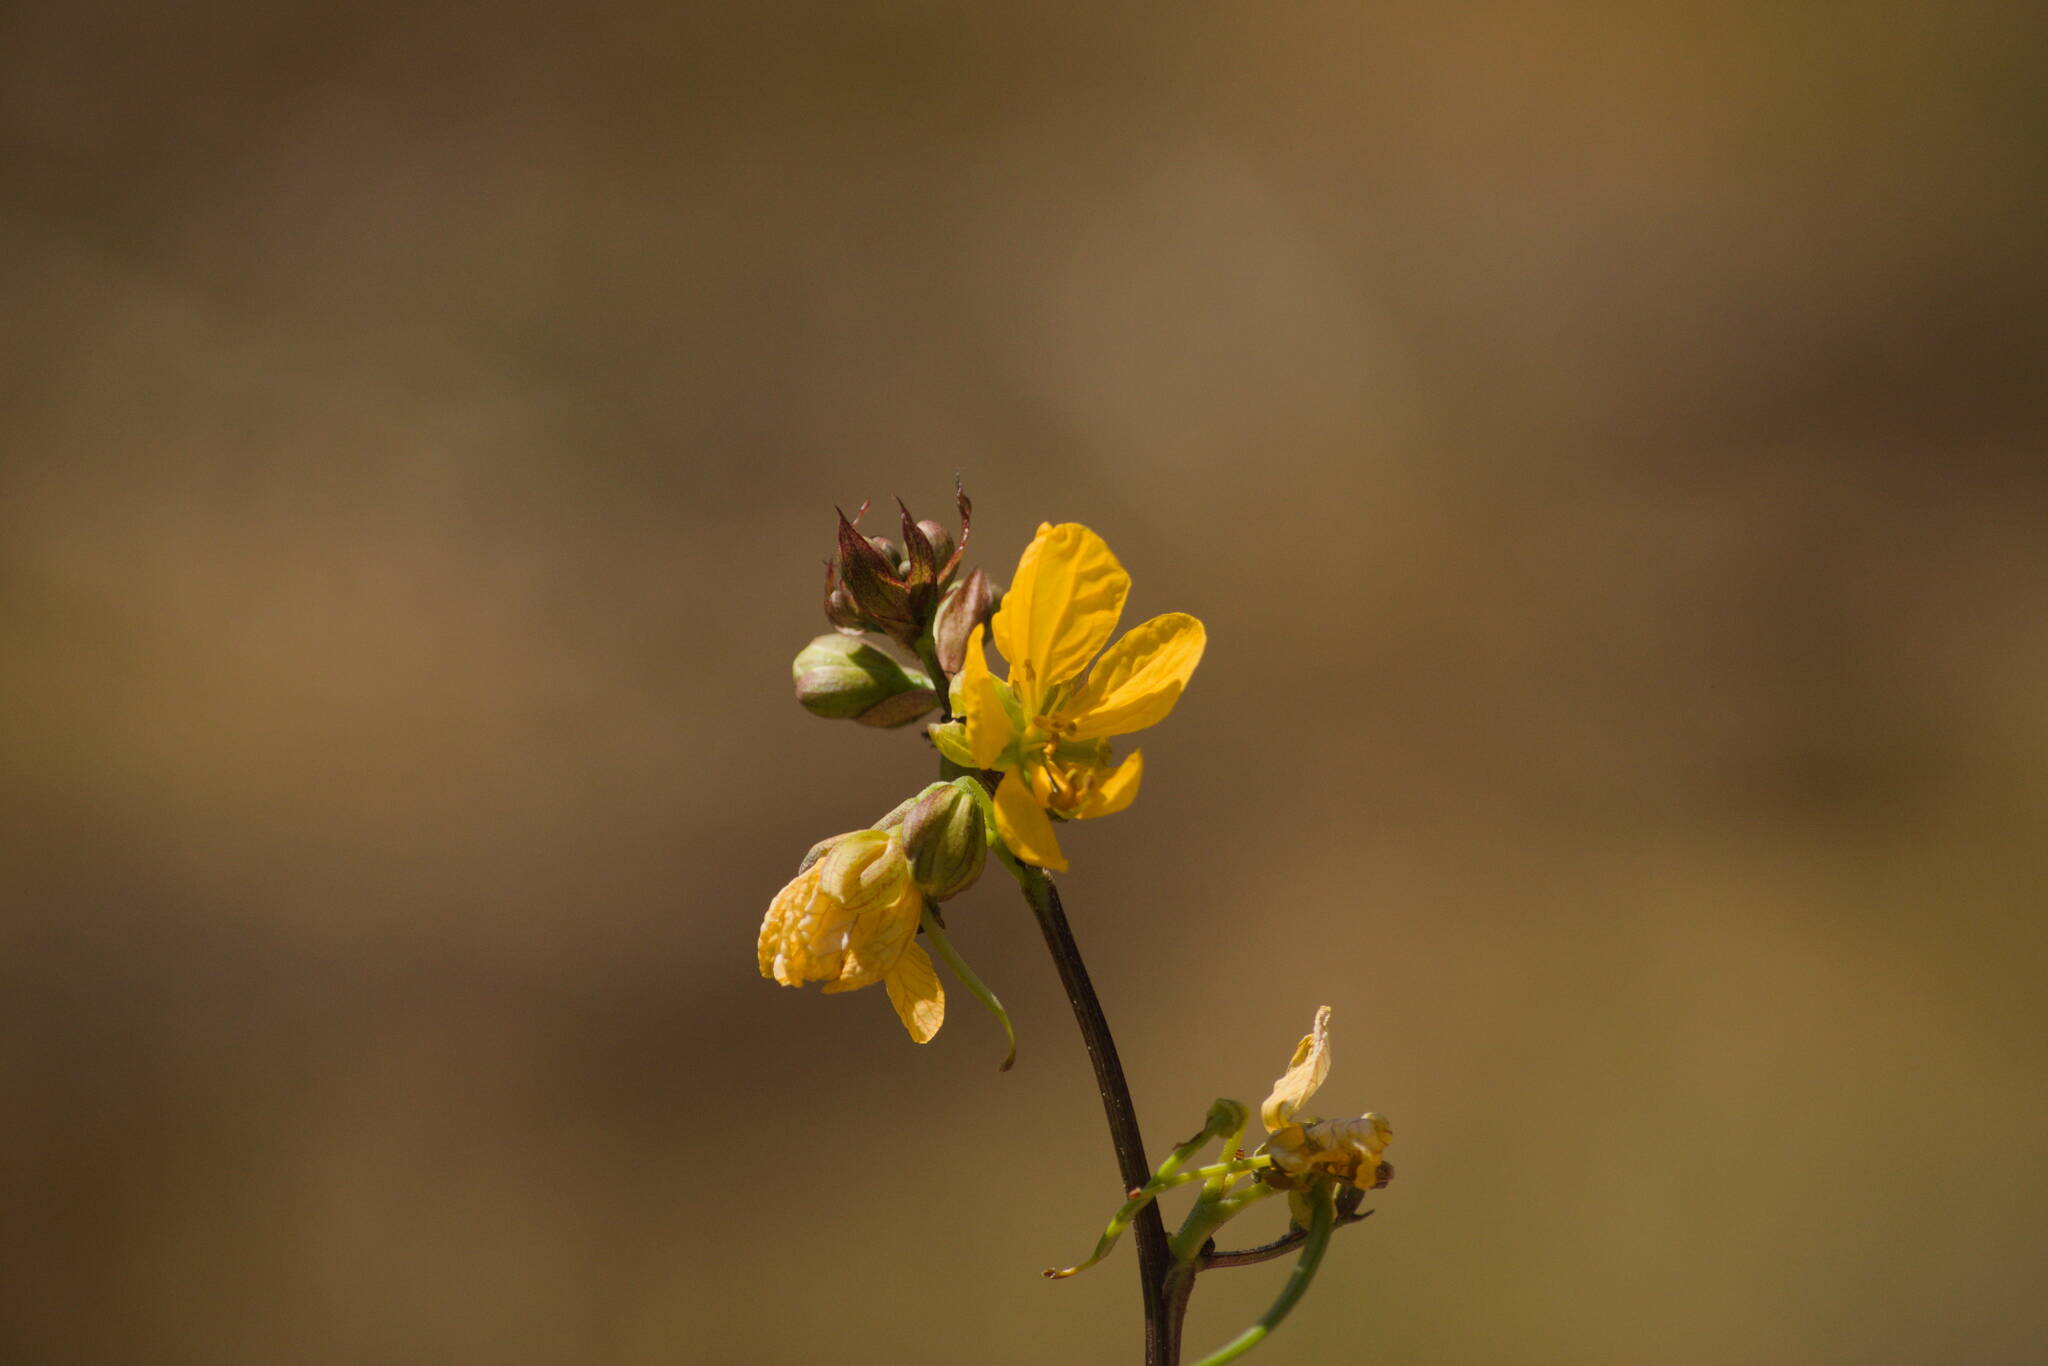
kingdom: Plantae
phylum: Tracheophyta
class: Magnoliopsida
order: Fabales
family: Fabaceae
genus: Senna
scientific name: Senna occidentalis
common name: Septicweed
